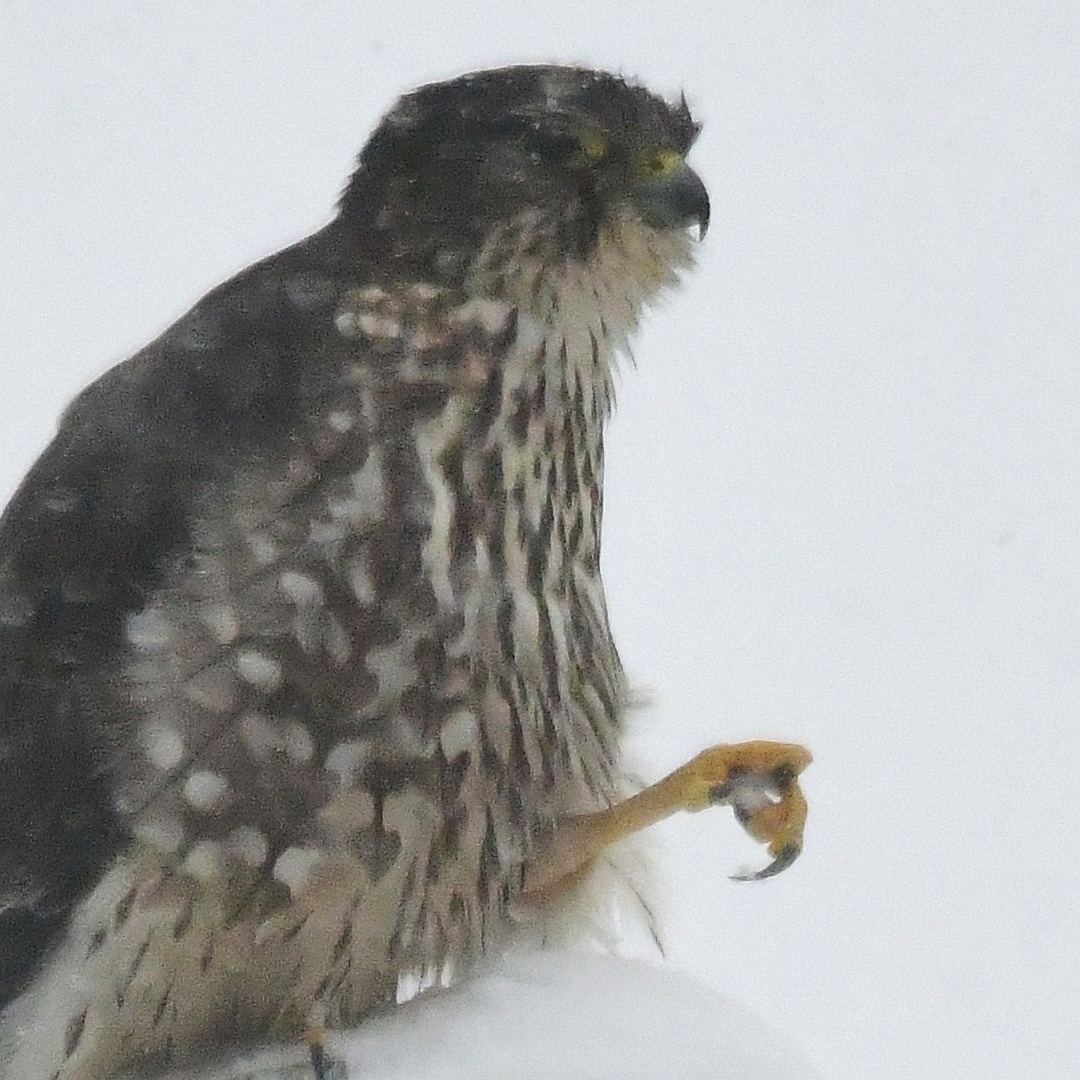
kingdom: Animalia
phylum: Chordata
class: Aves
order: Falconiformes
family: Falconidae
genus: Falco
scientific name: Falco columbarius
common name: Merlin
